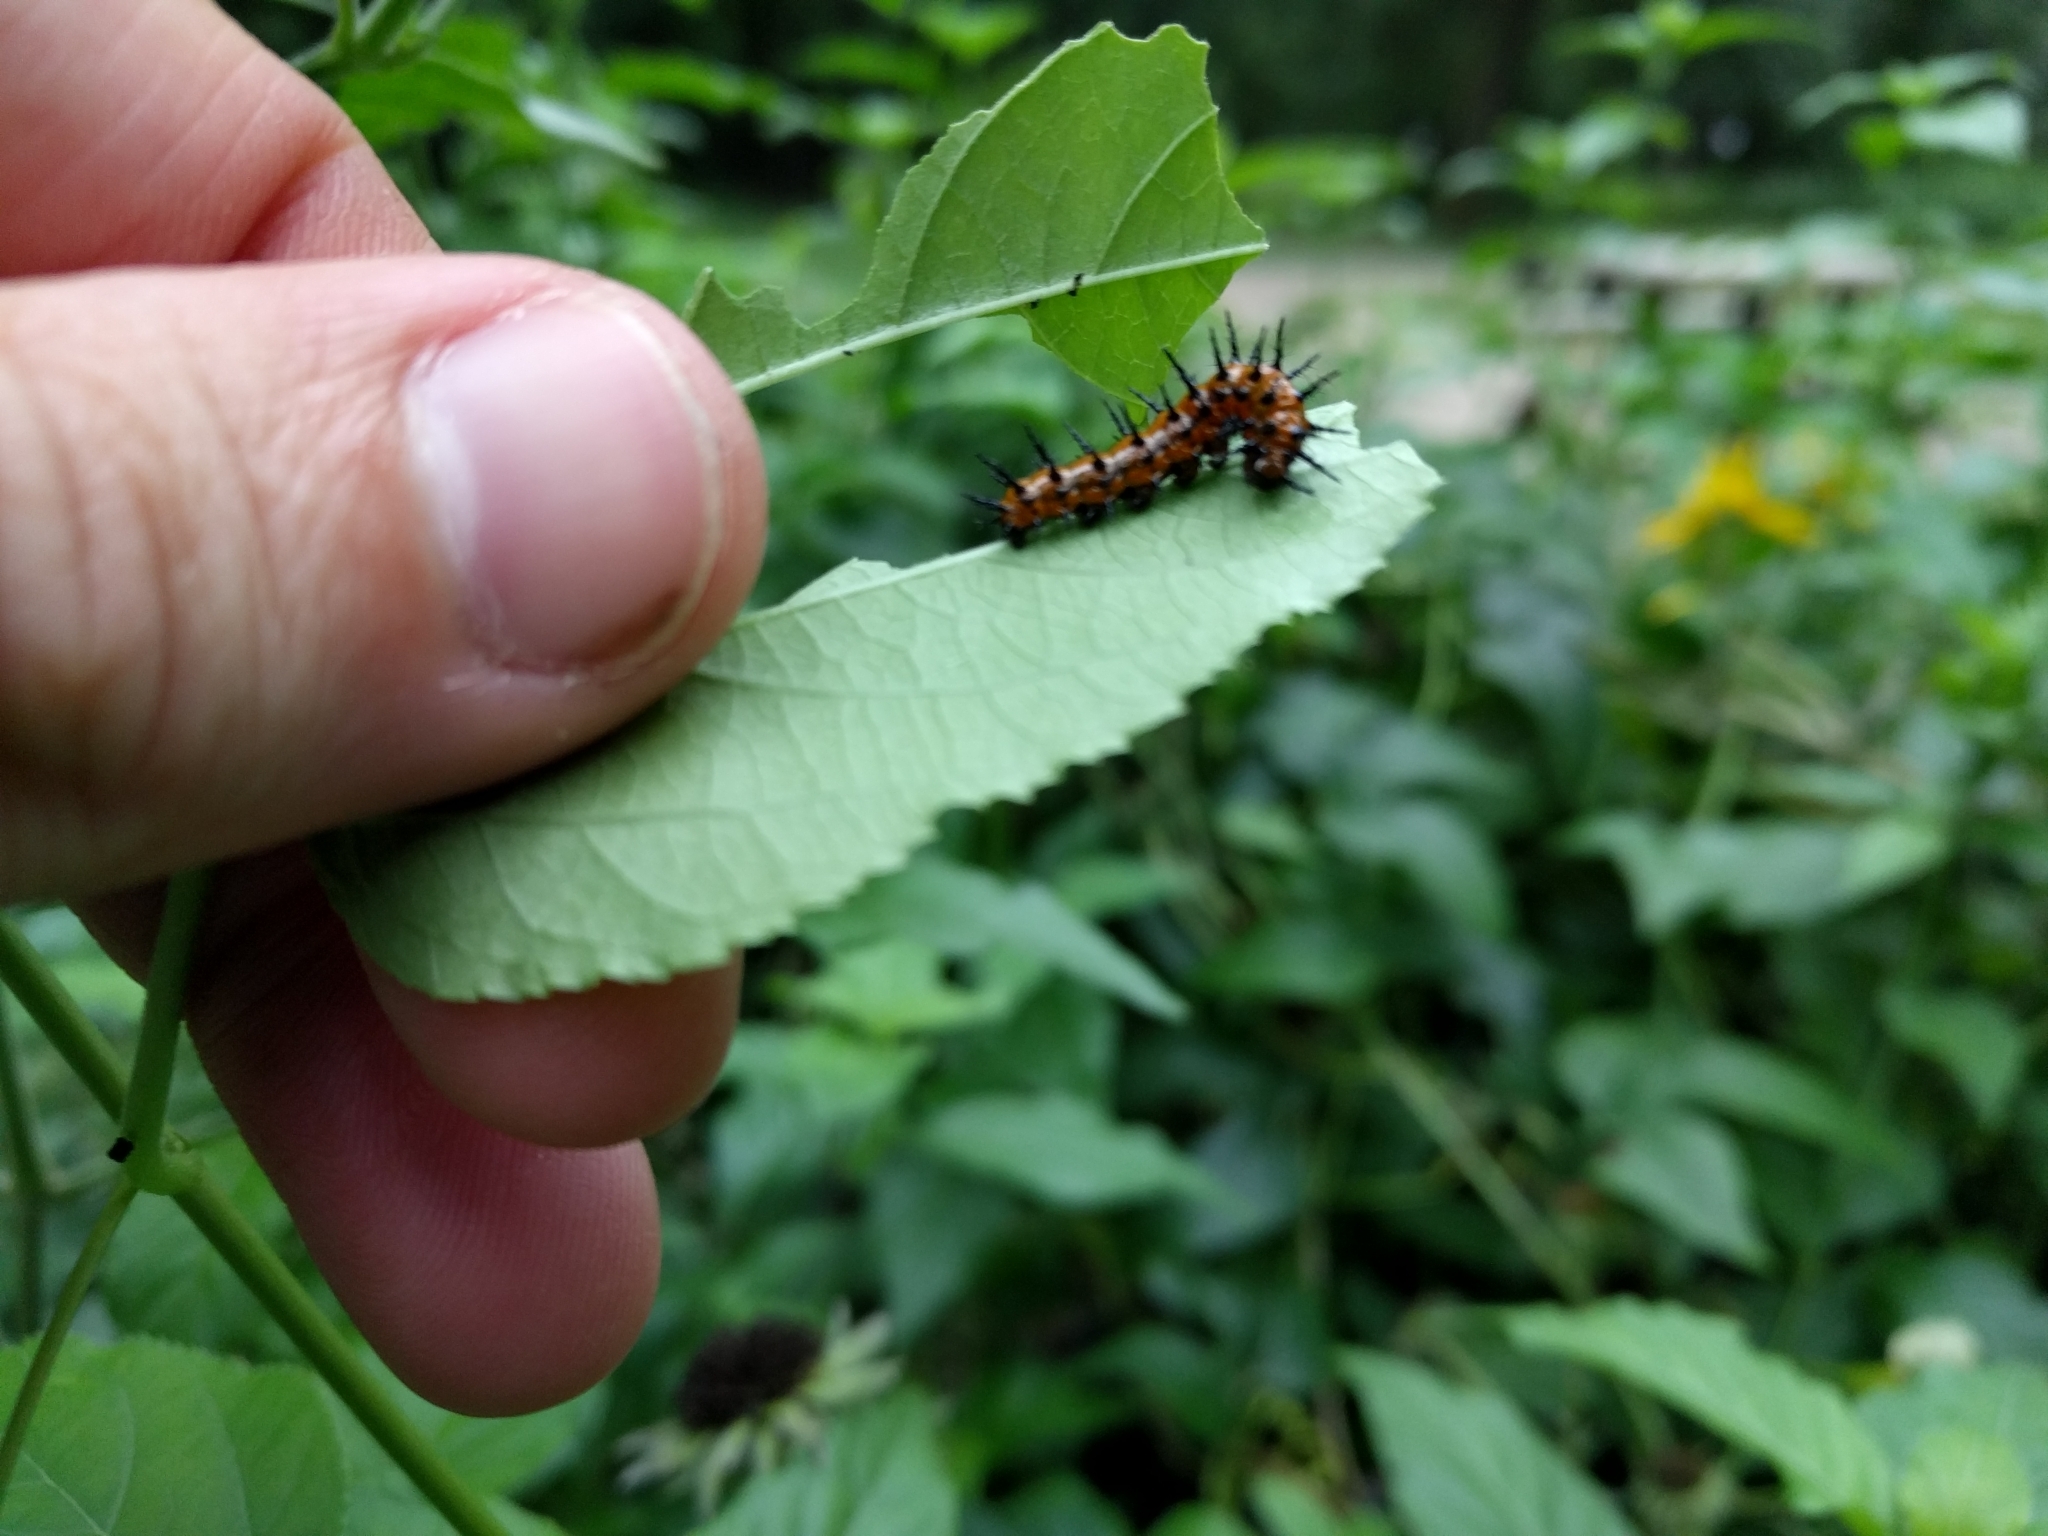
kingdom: Animalia
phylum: Arthropoda
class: Insecta
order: Lepidoptera
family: Nymphalidae
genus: Dione
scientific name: Dione vanillae
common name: Gulf fritillary
